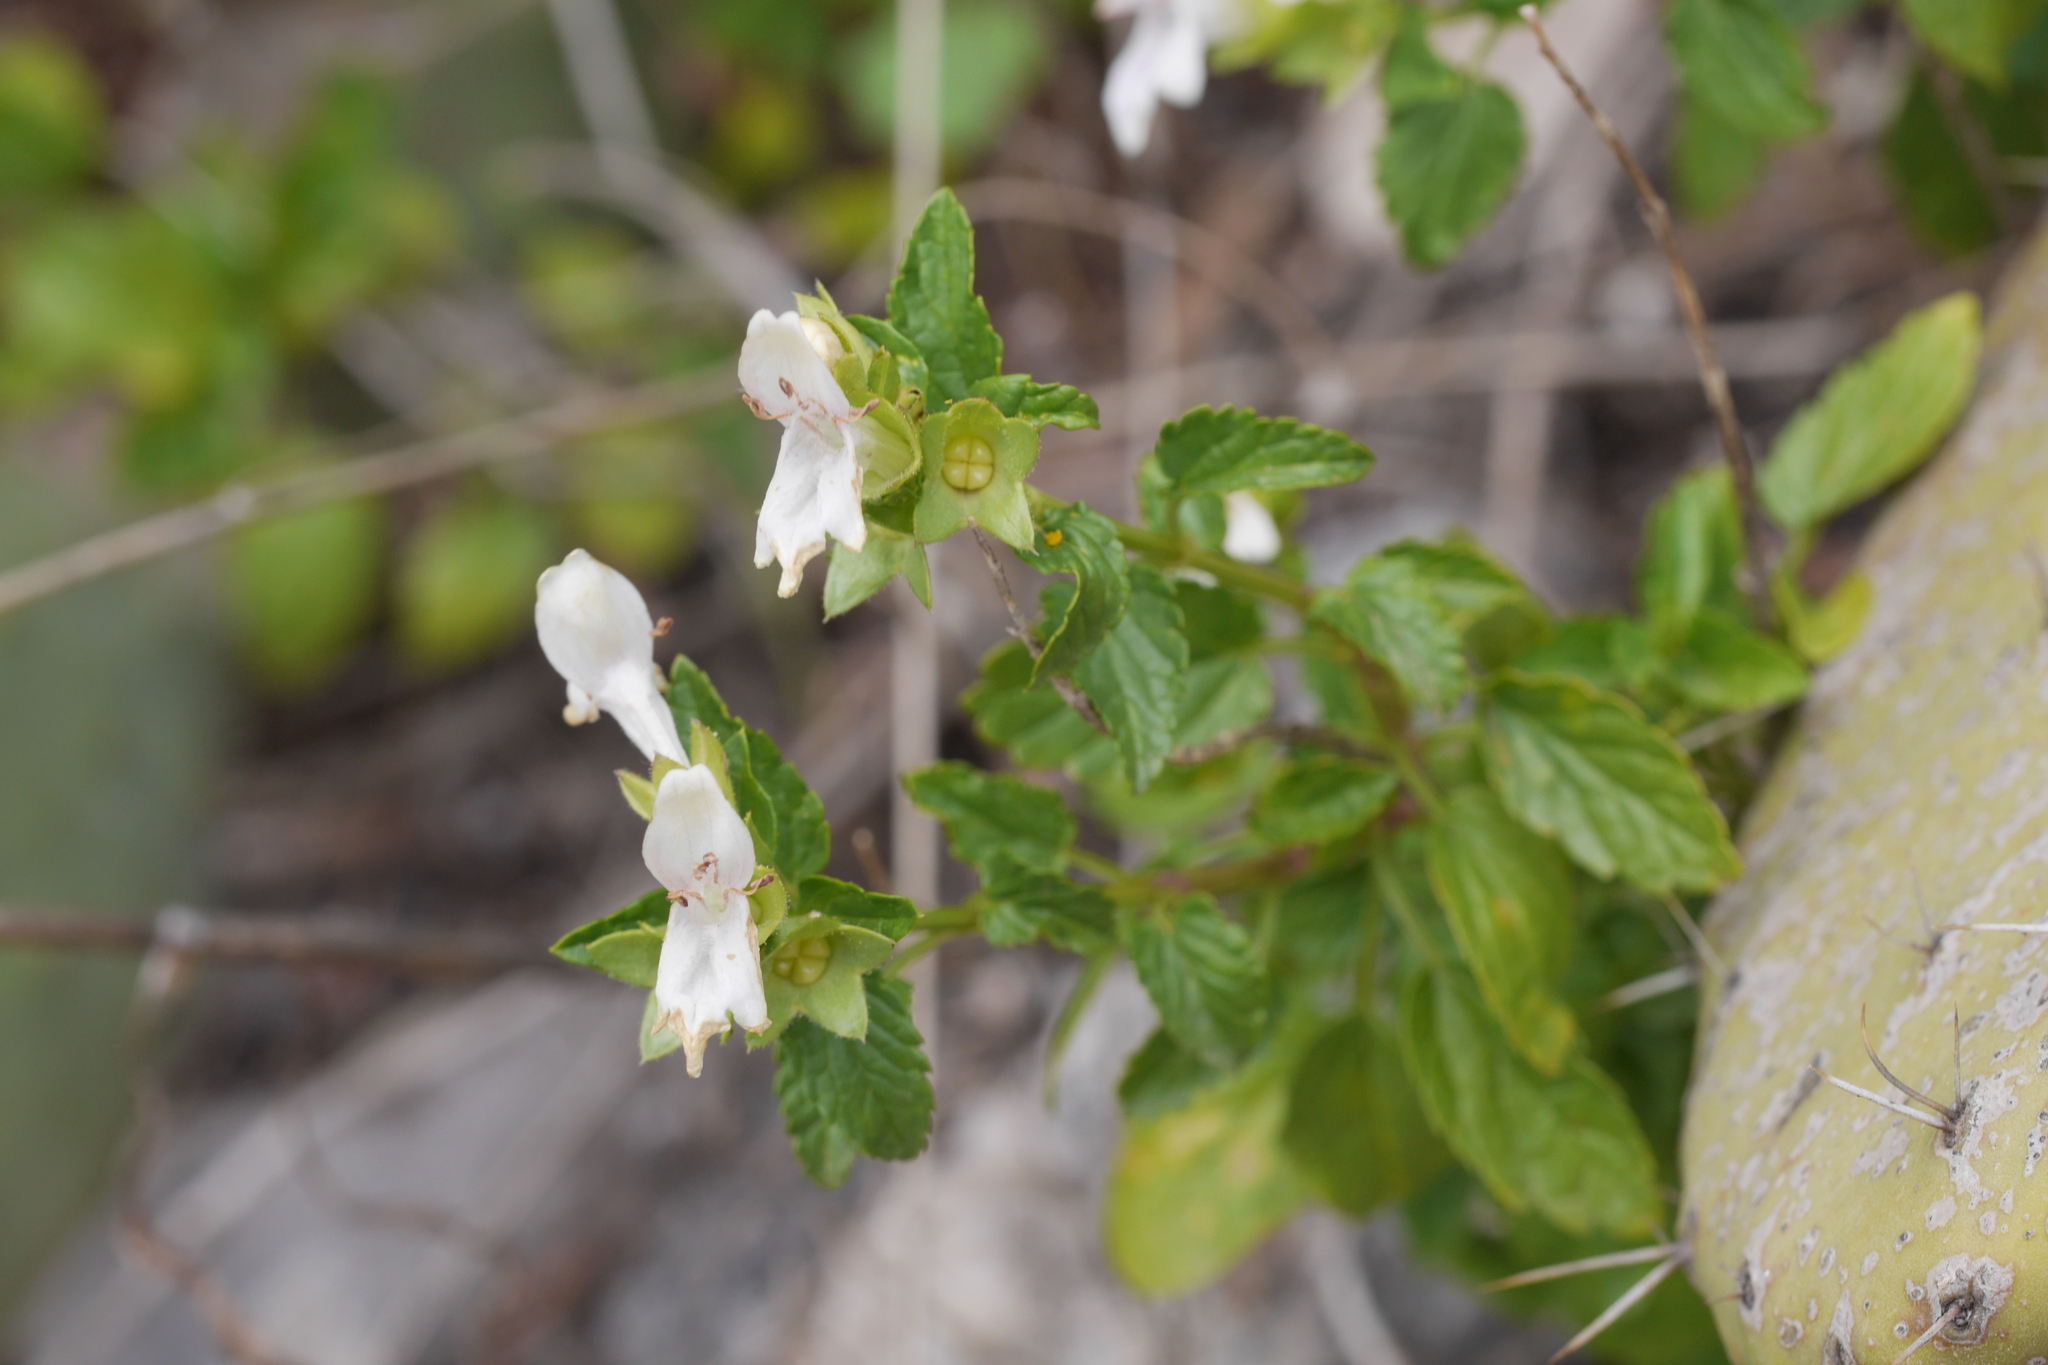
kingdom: Plantae
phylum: Tracheophyta
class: Magnoliopsida
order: Lamiales
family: Lamiaceae
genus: Prasium
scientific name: Prasium majus
